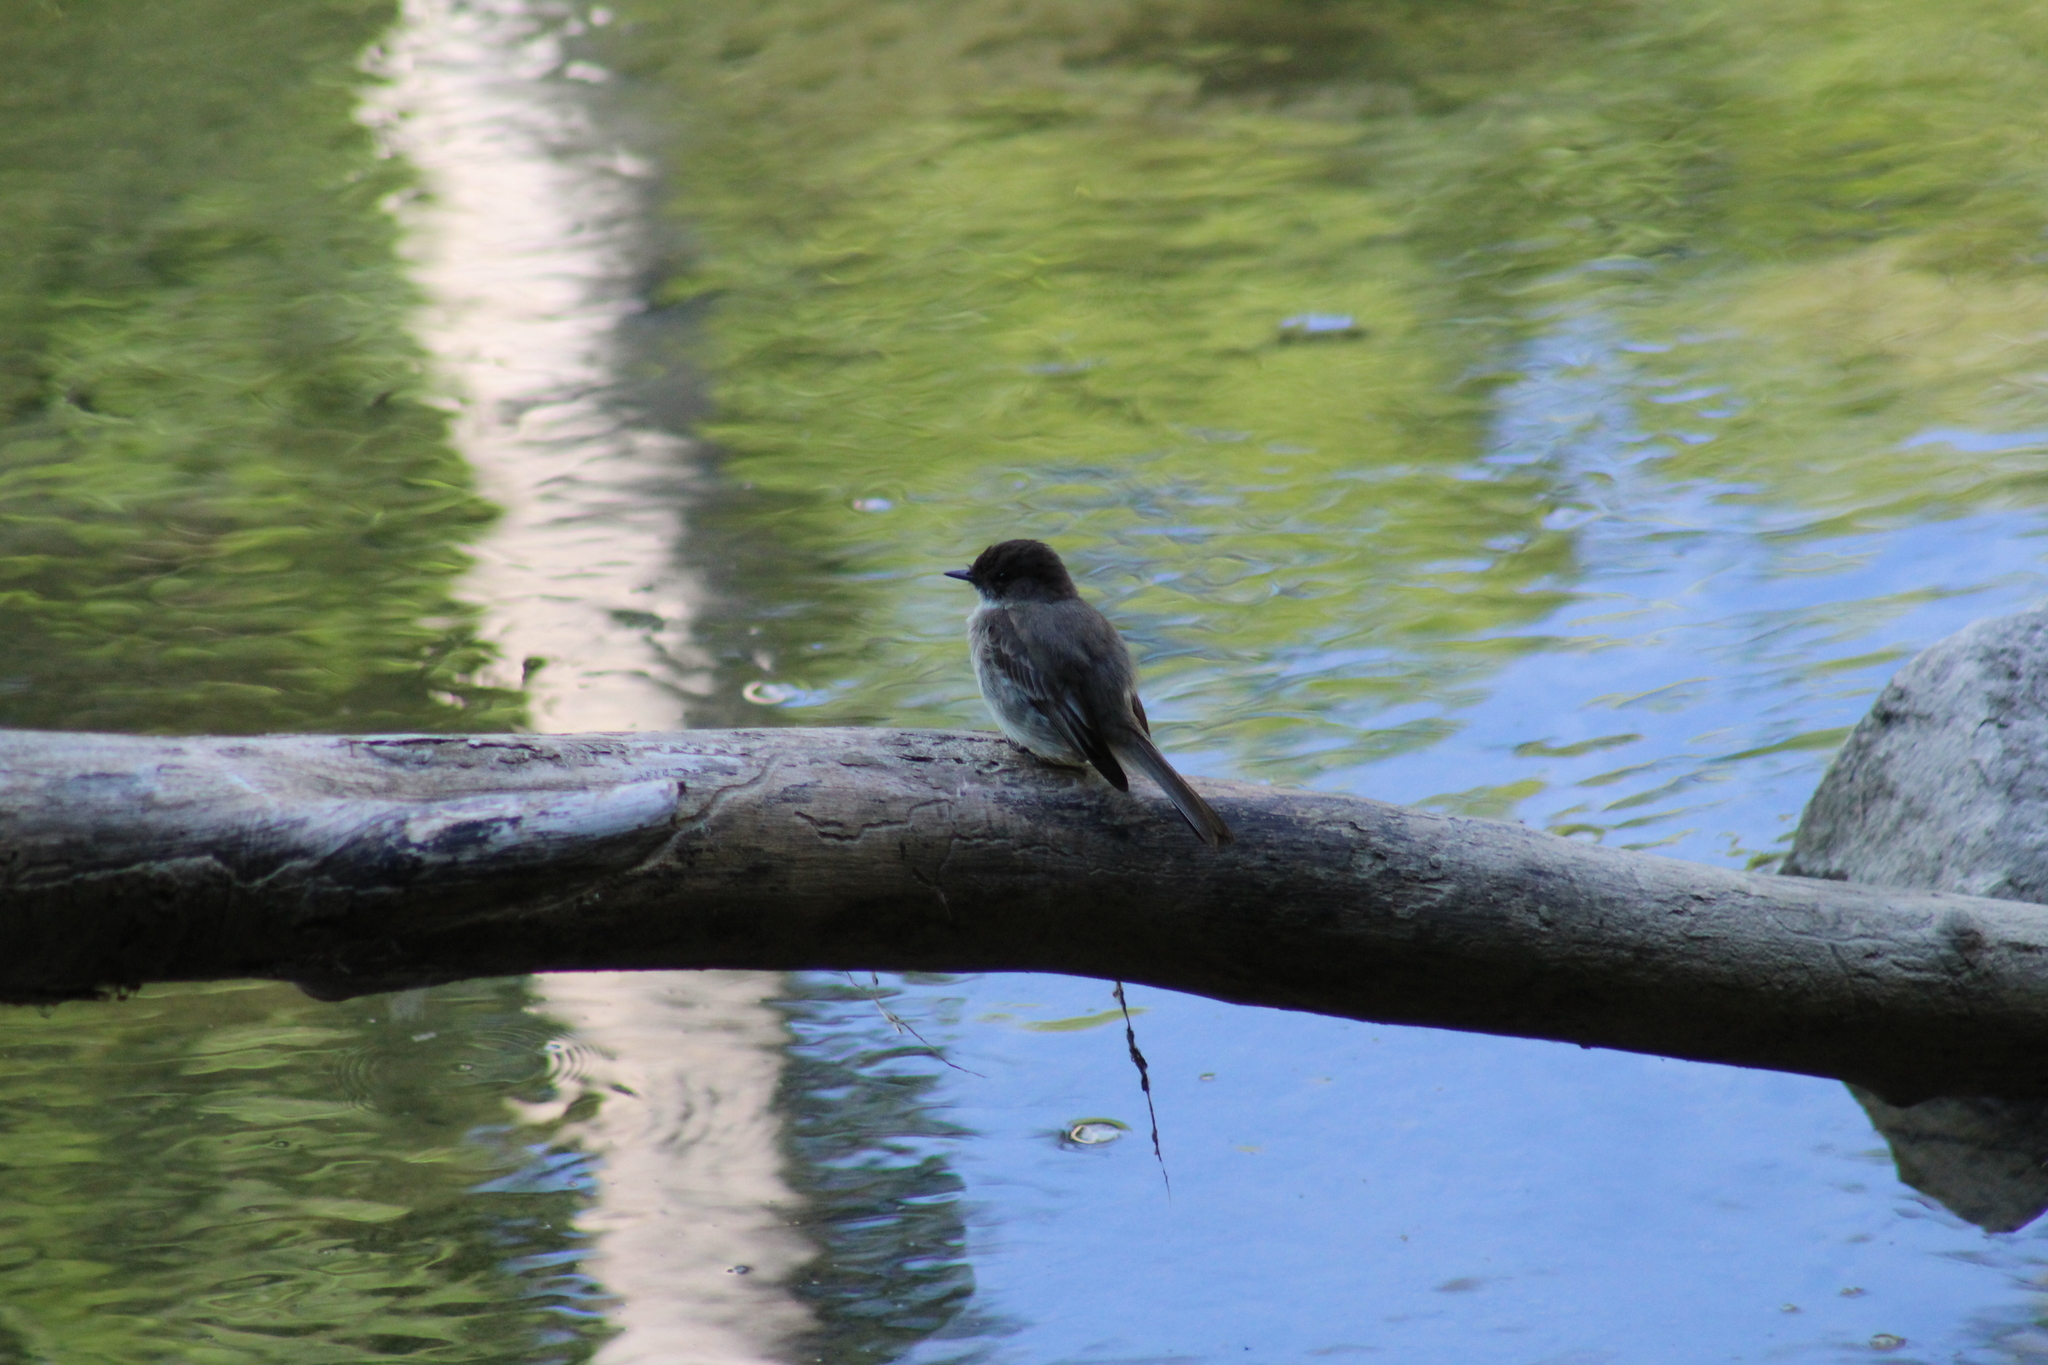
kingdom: Animalia
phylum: Chordata
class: Aves
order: Passeriformes
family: Tyrannidae
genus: Sayornis
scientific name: Sayornis phoebe
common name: Eastern phoebe
